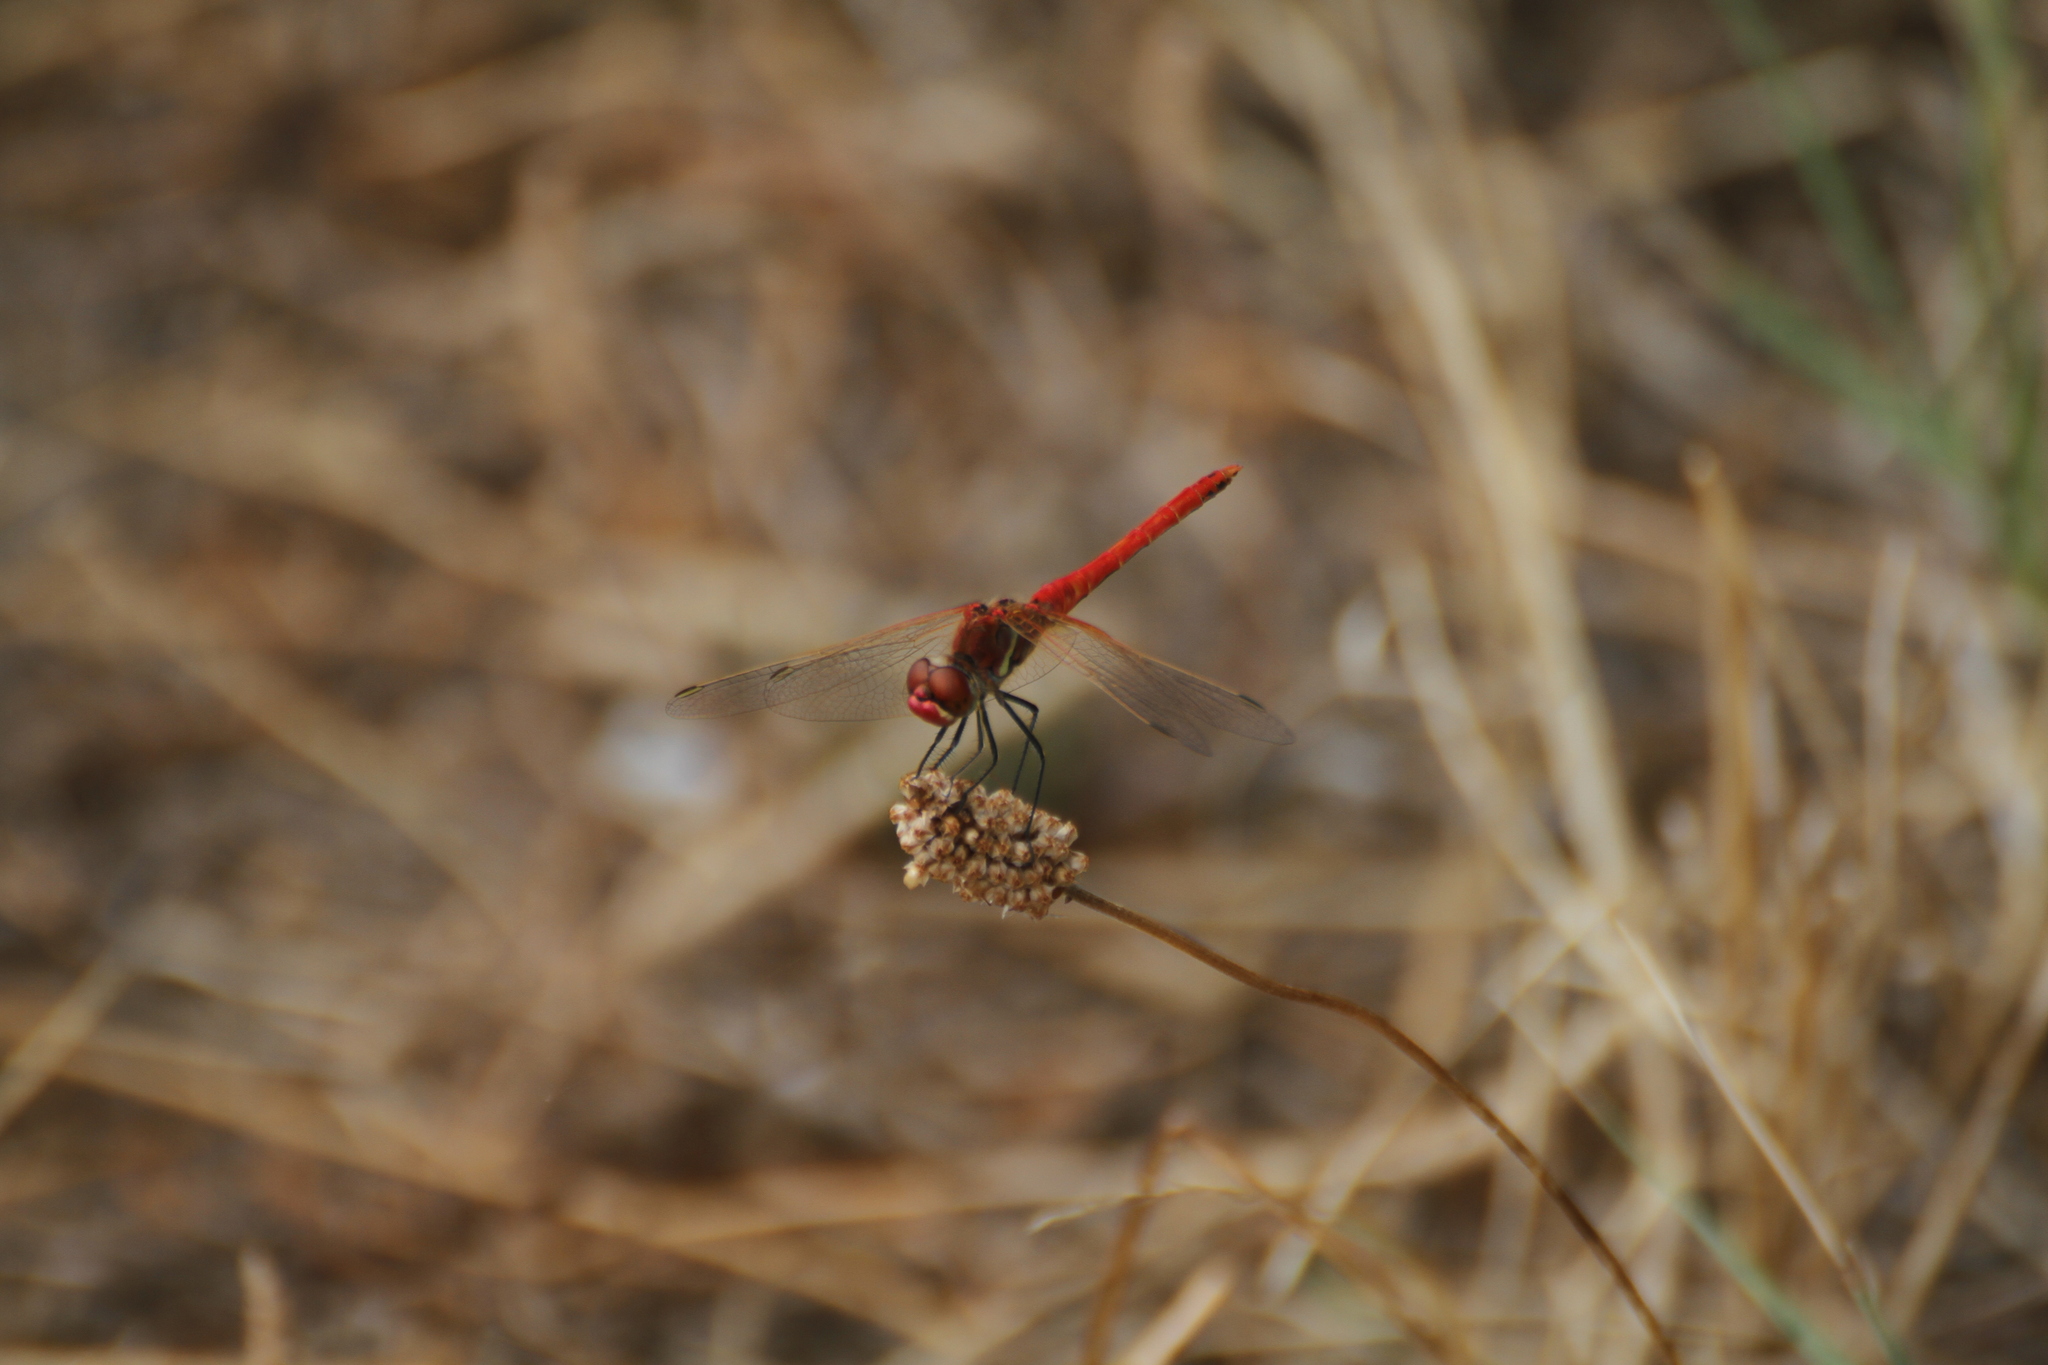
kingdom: Animalia
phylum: Arthropoda
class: Insecta
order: Odonata
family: Libellulidae
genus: Sympetrum
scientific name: Sympetrum fonscolombii
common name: Red-veined darter
